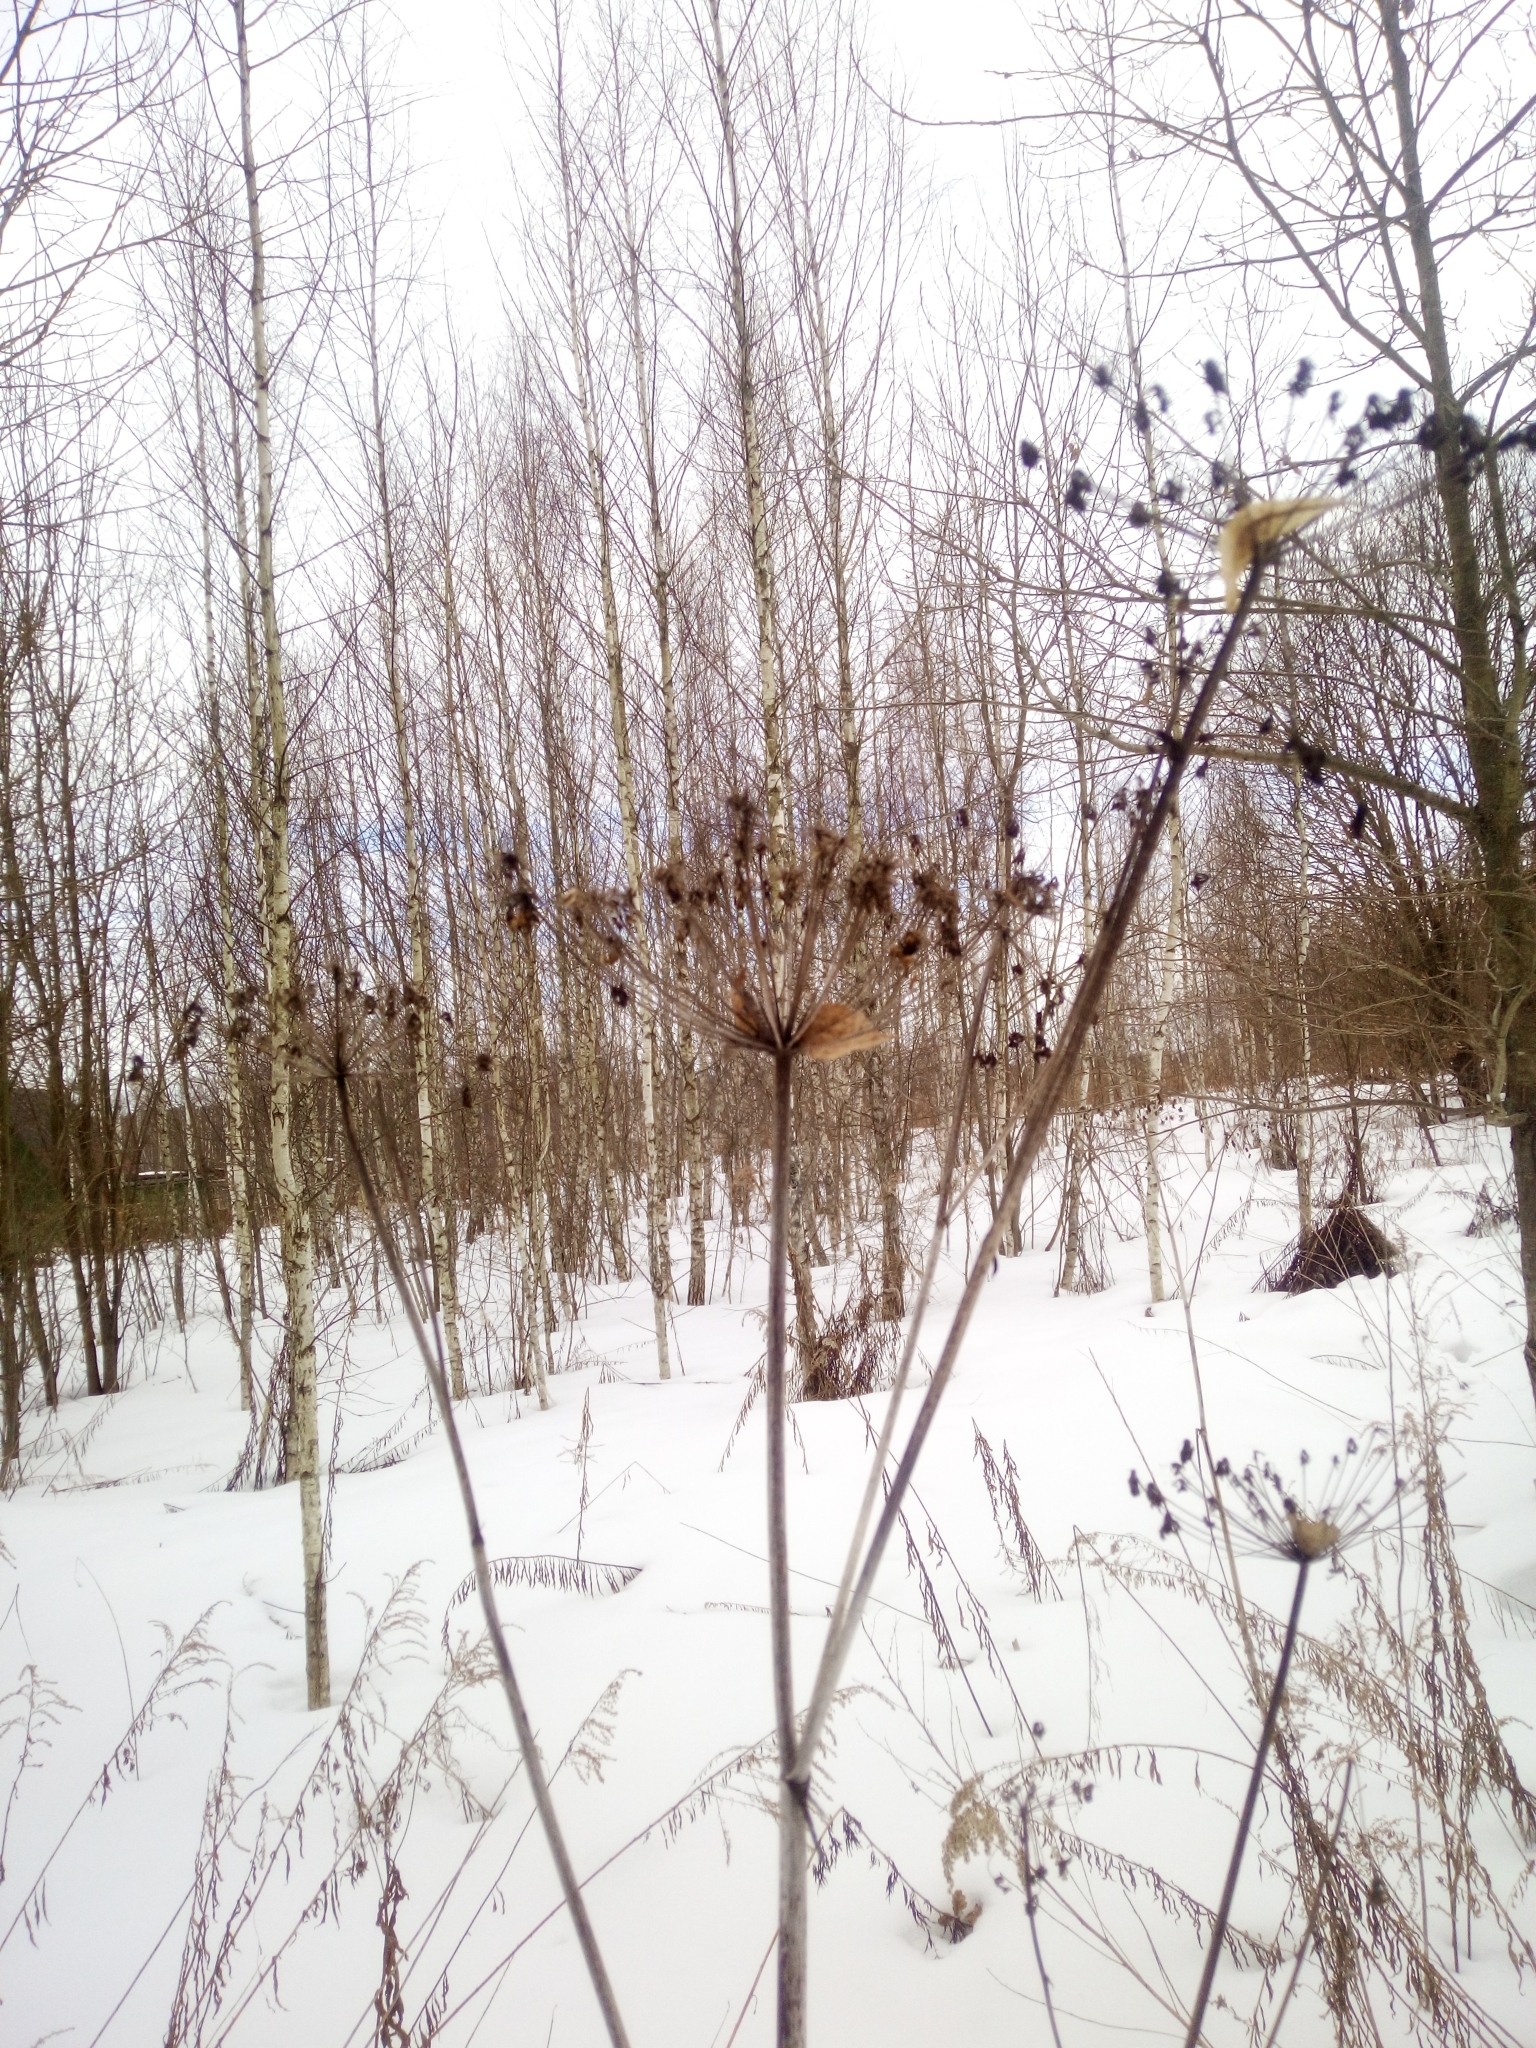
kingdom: Plantae
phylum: Tracheophyta
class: Magnoliopsida
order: Apiales
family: Apiaceae
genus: Angelica
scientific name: Angelica sylvestris
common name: Wild angelica
